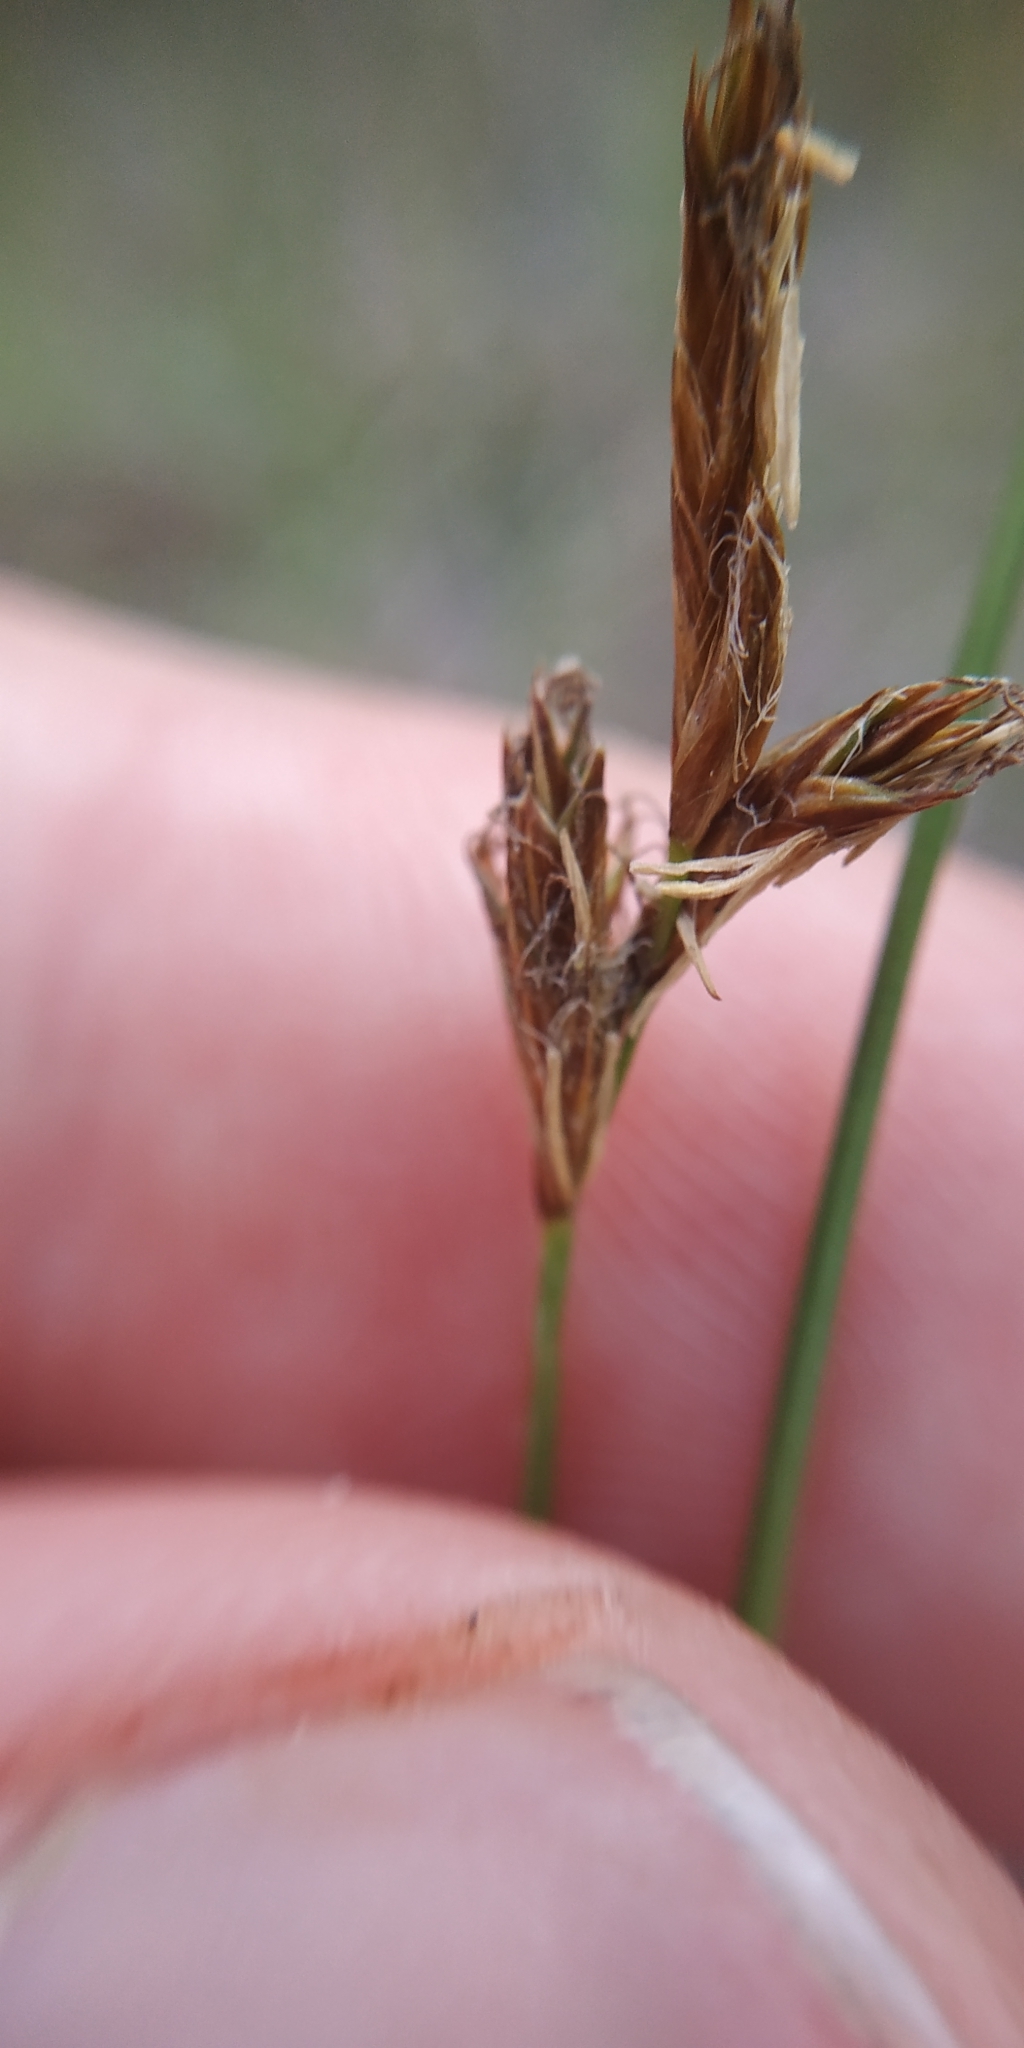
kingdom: Plantae
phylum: Tracheophyta
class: Liliopsida
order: Poales
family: Cyperaceae
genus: Carex
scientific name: Carex praecox
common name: Early sedge
